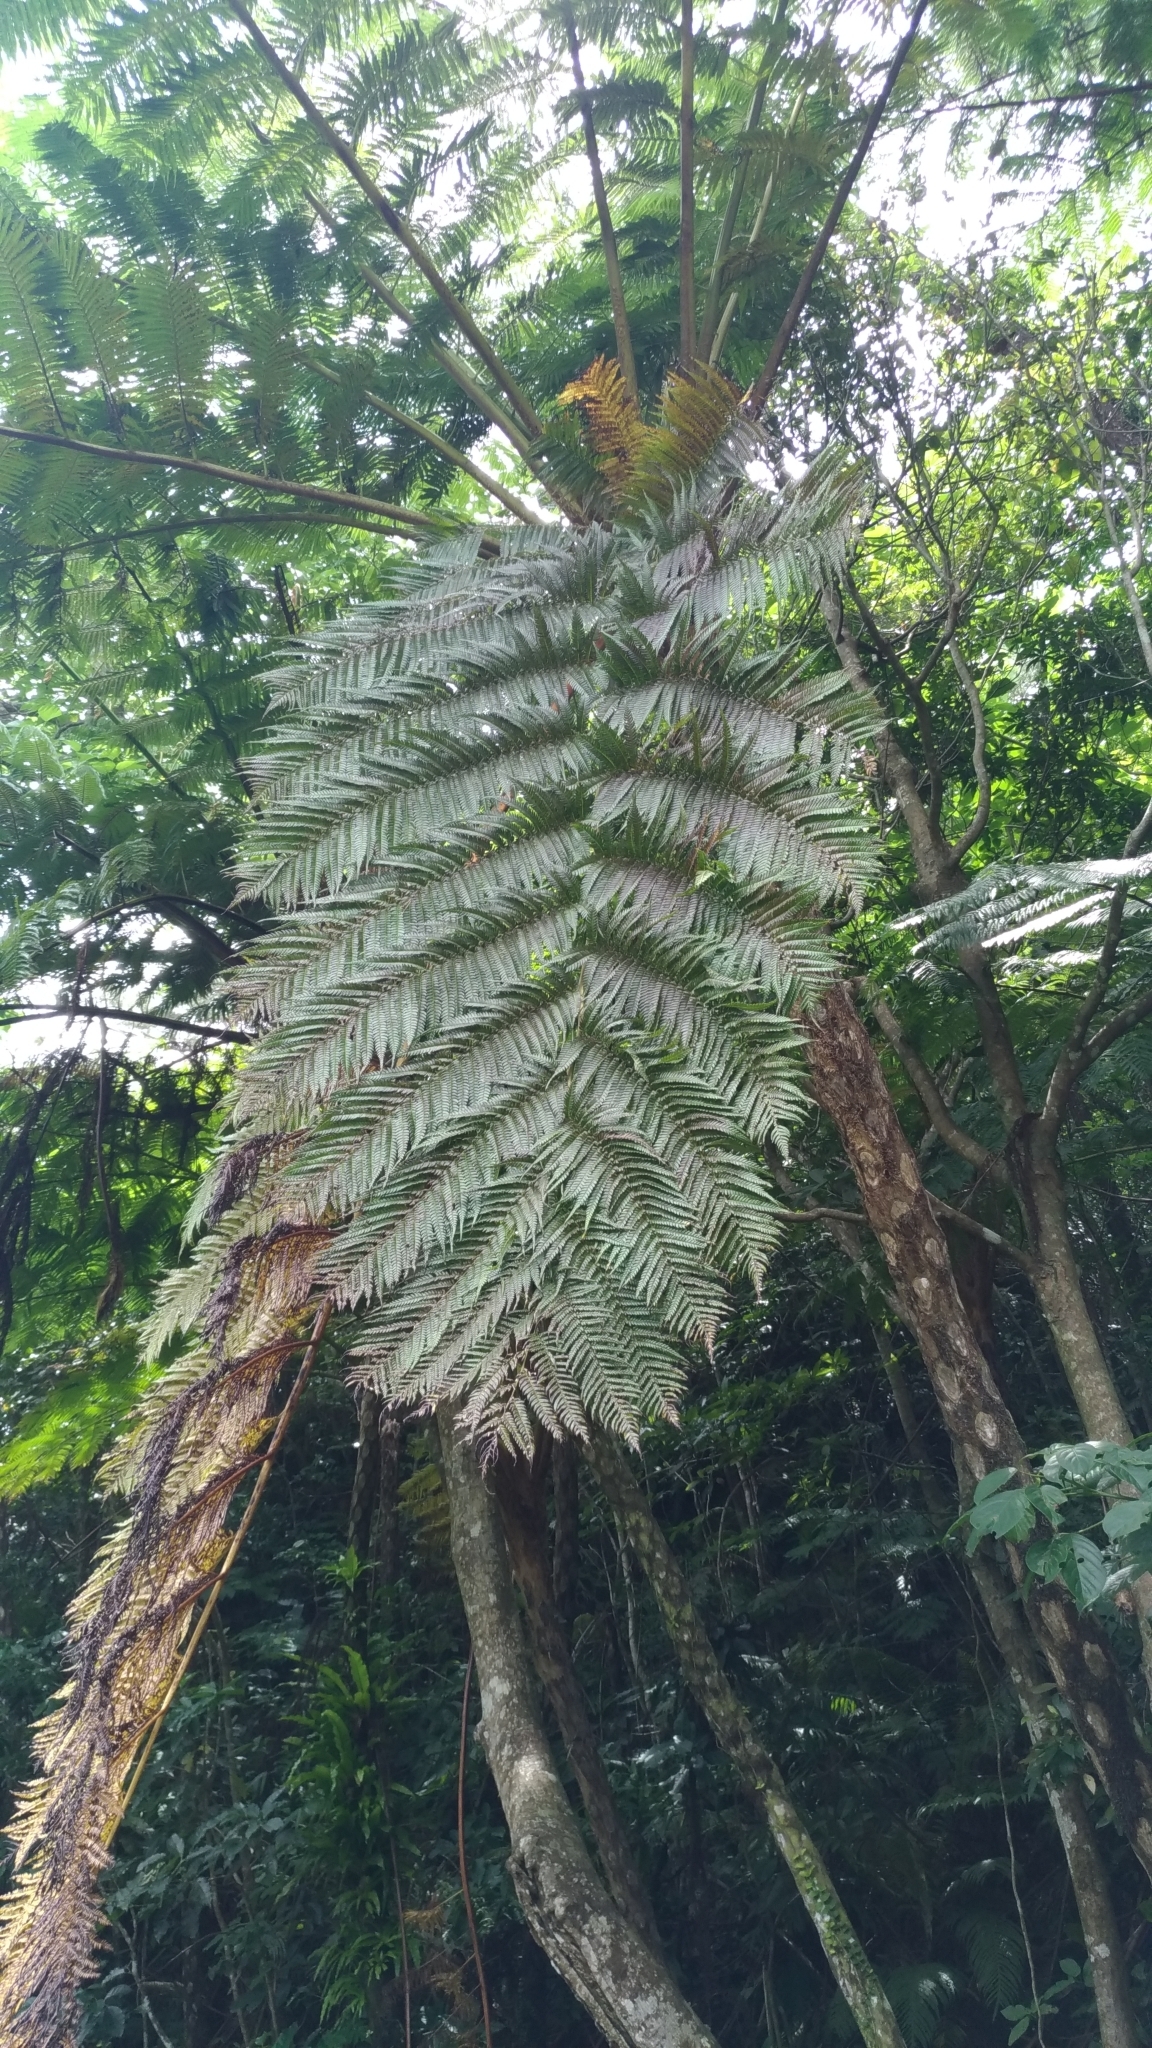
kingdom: Plantae
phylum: Tracheophyta
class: Polypodiopsida
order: Cyatheales
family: Cyatheaceae
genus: Alsophila
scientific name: Alsophila lepifera
